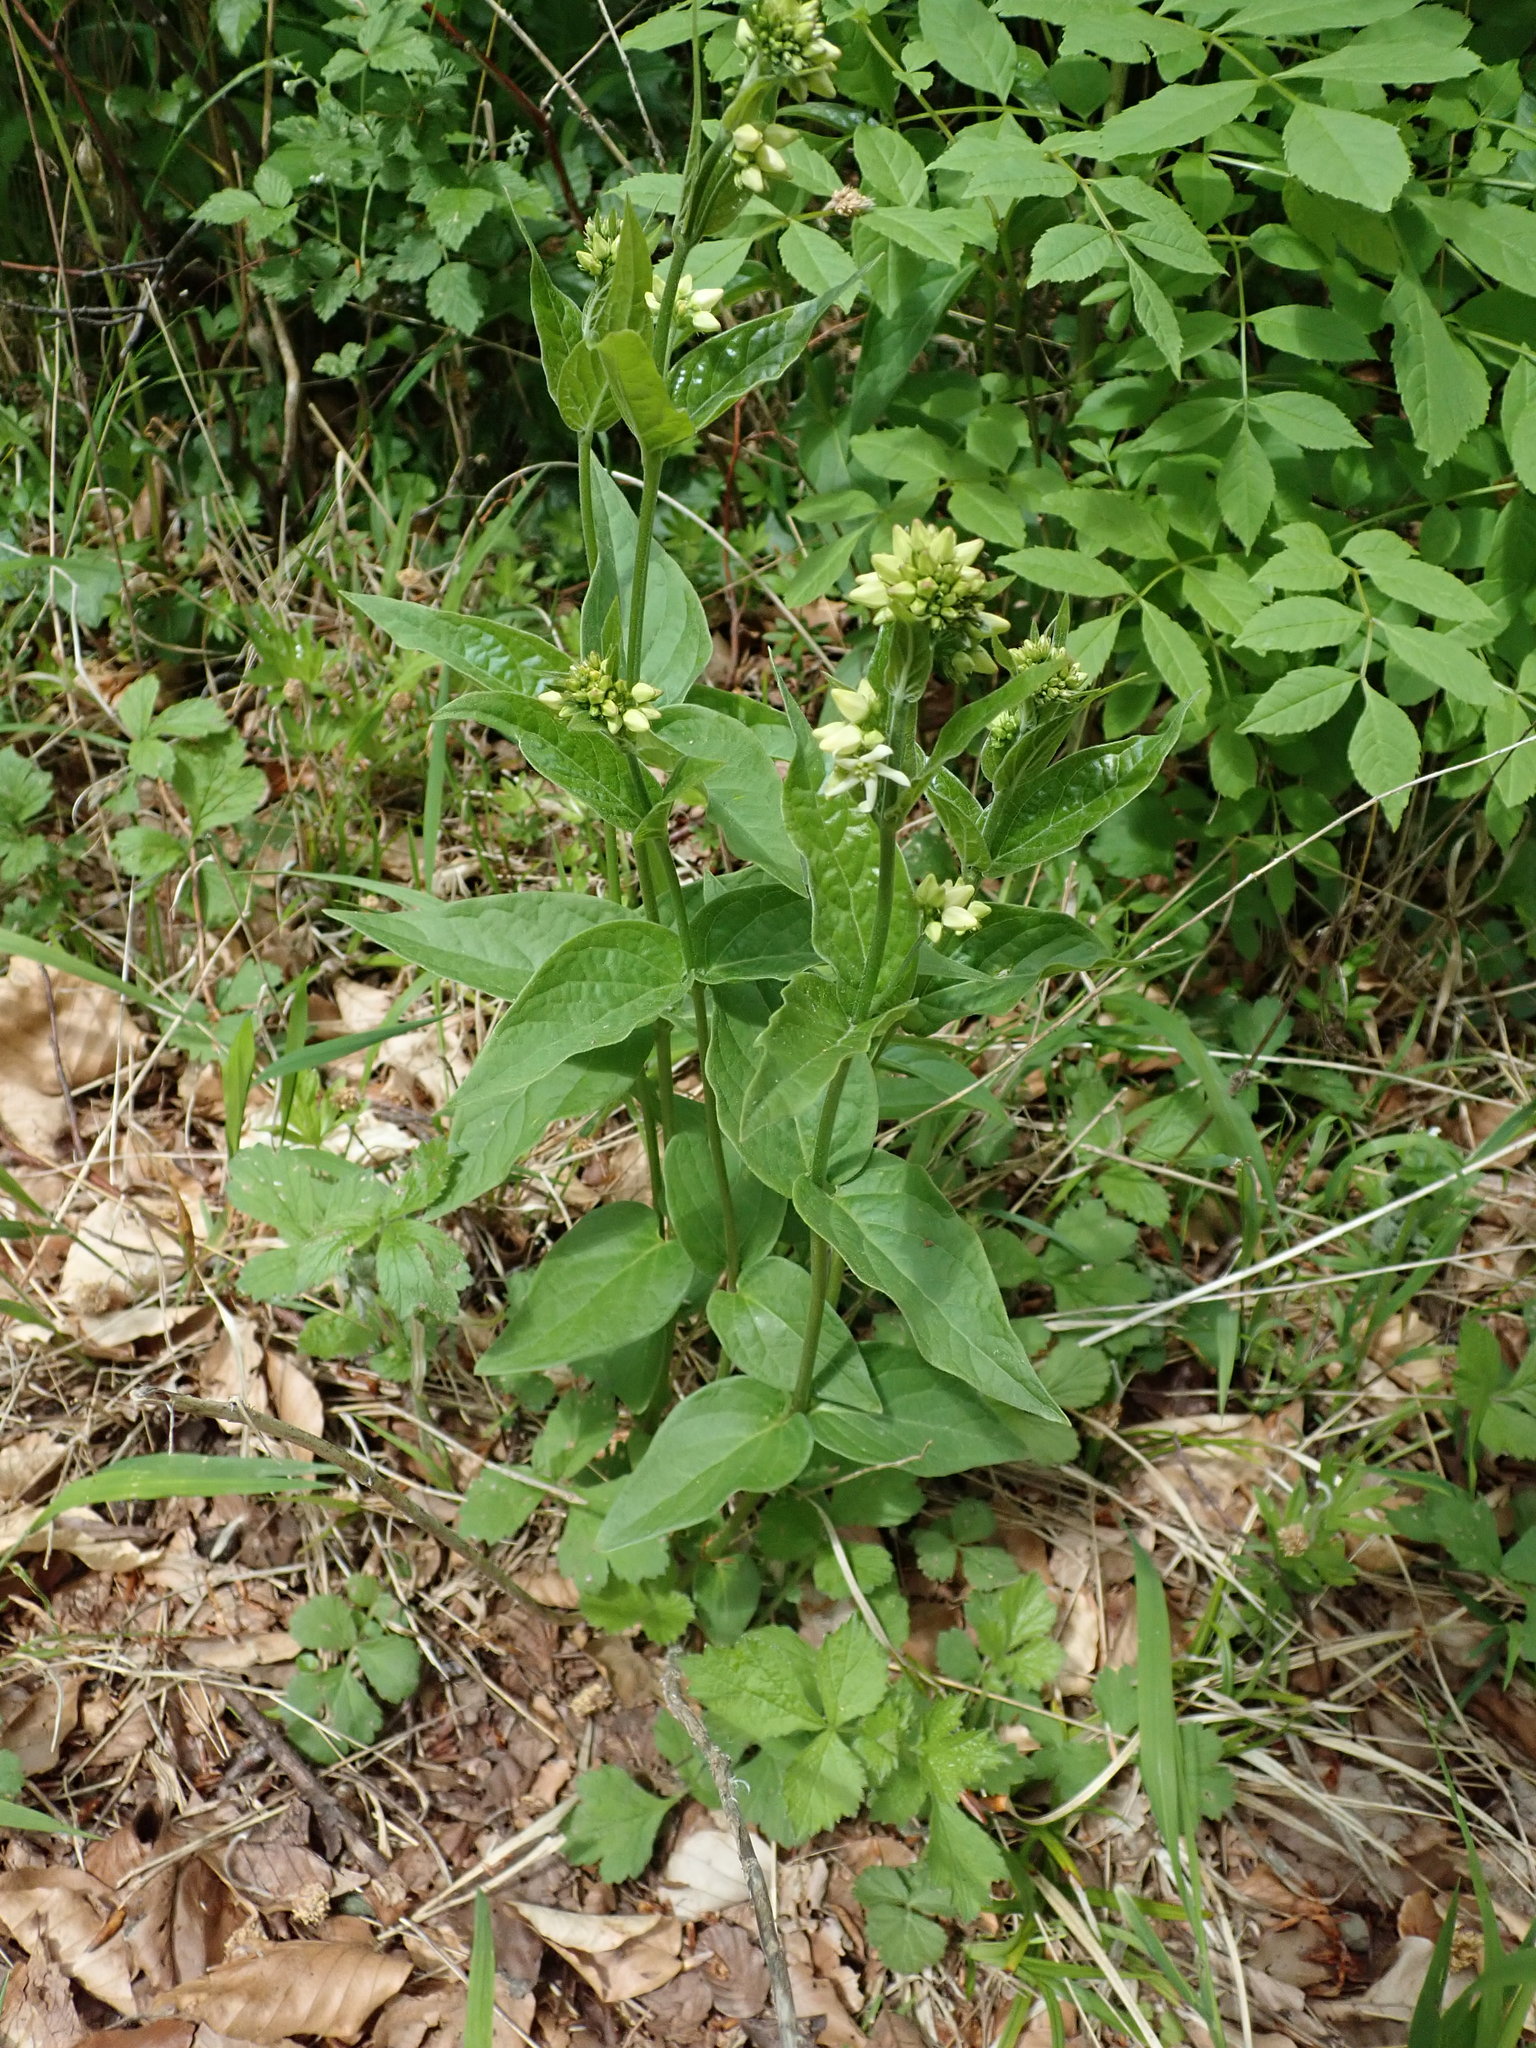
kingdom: Plantae
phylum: Tracheophyta
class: Magnoliopsida
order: Gentianales
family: Apocynaceae
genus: Vincetoxicum
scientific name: Vincetoxicum hirundinaria
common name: White swallowwort
